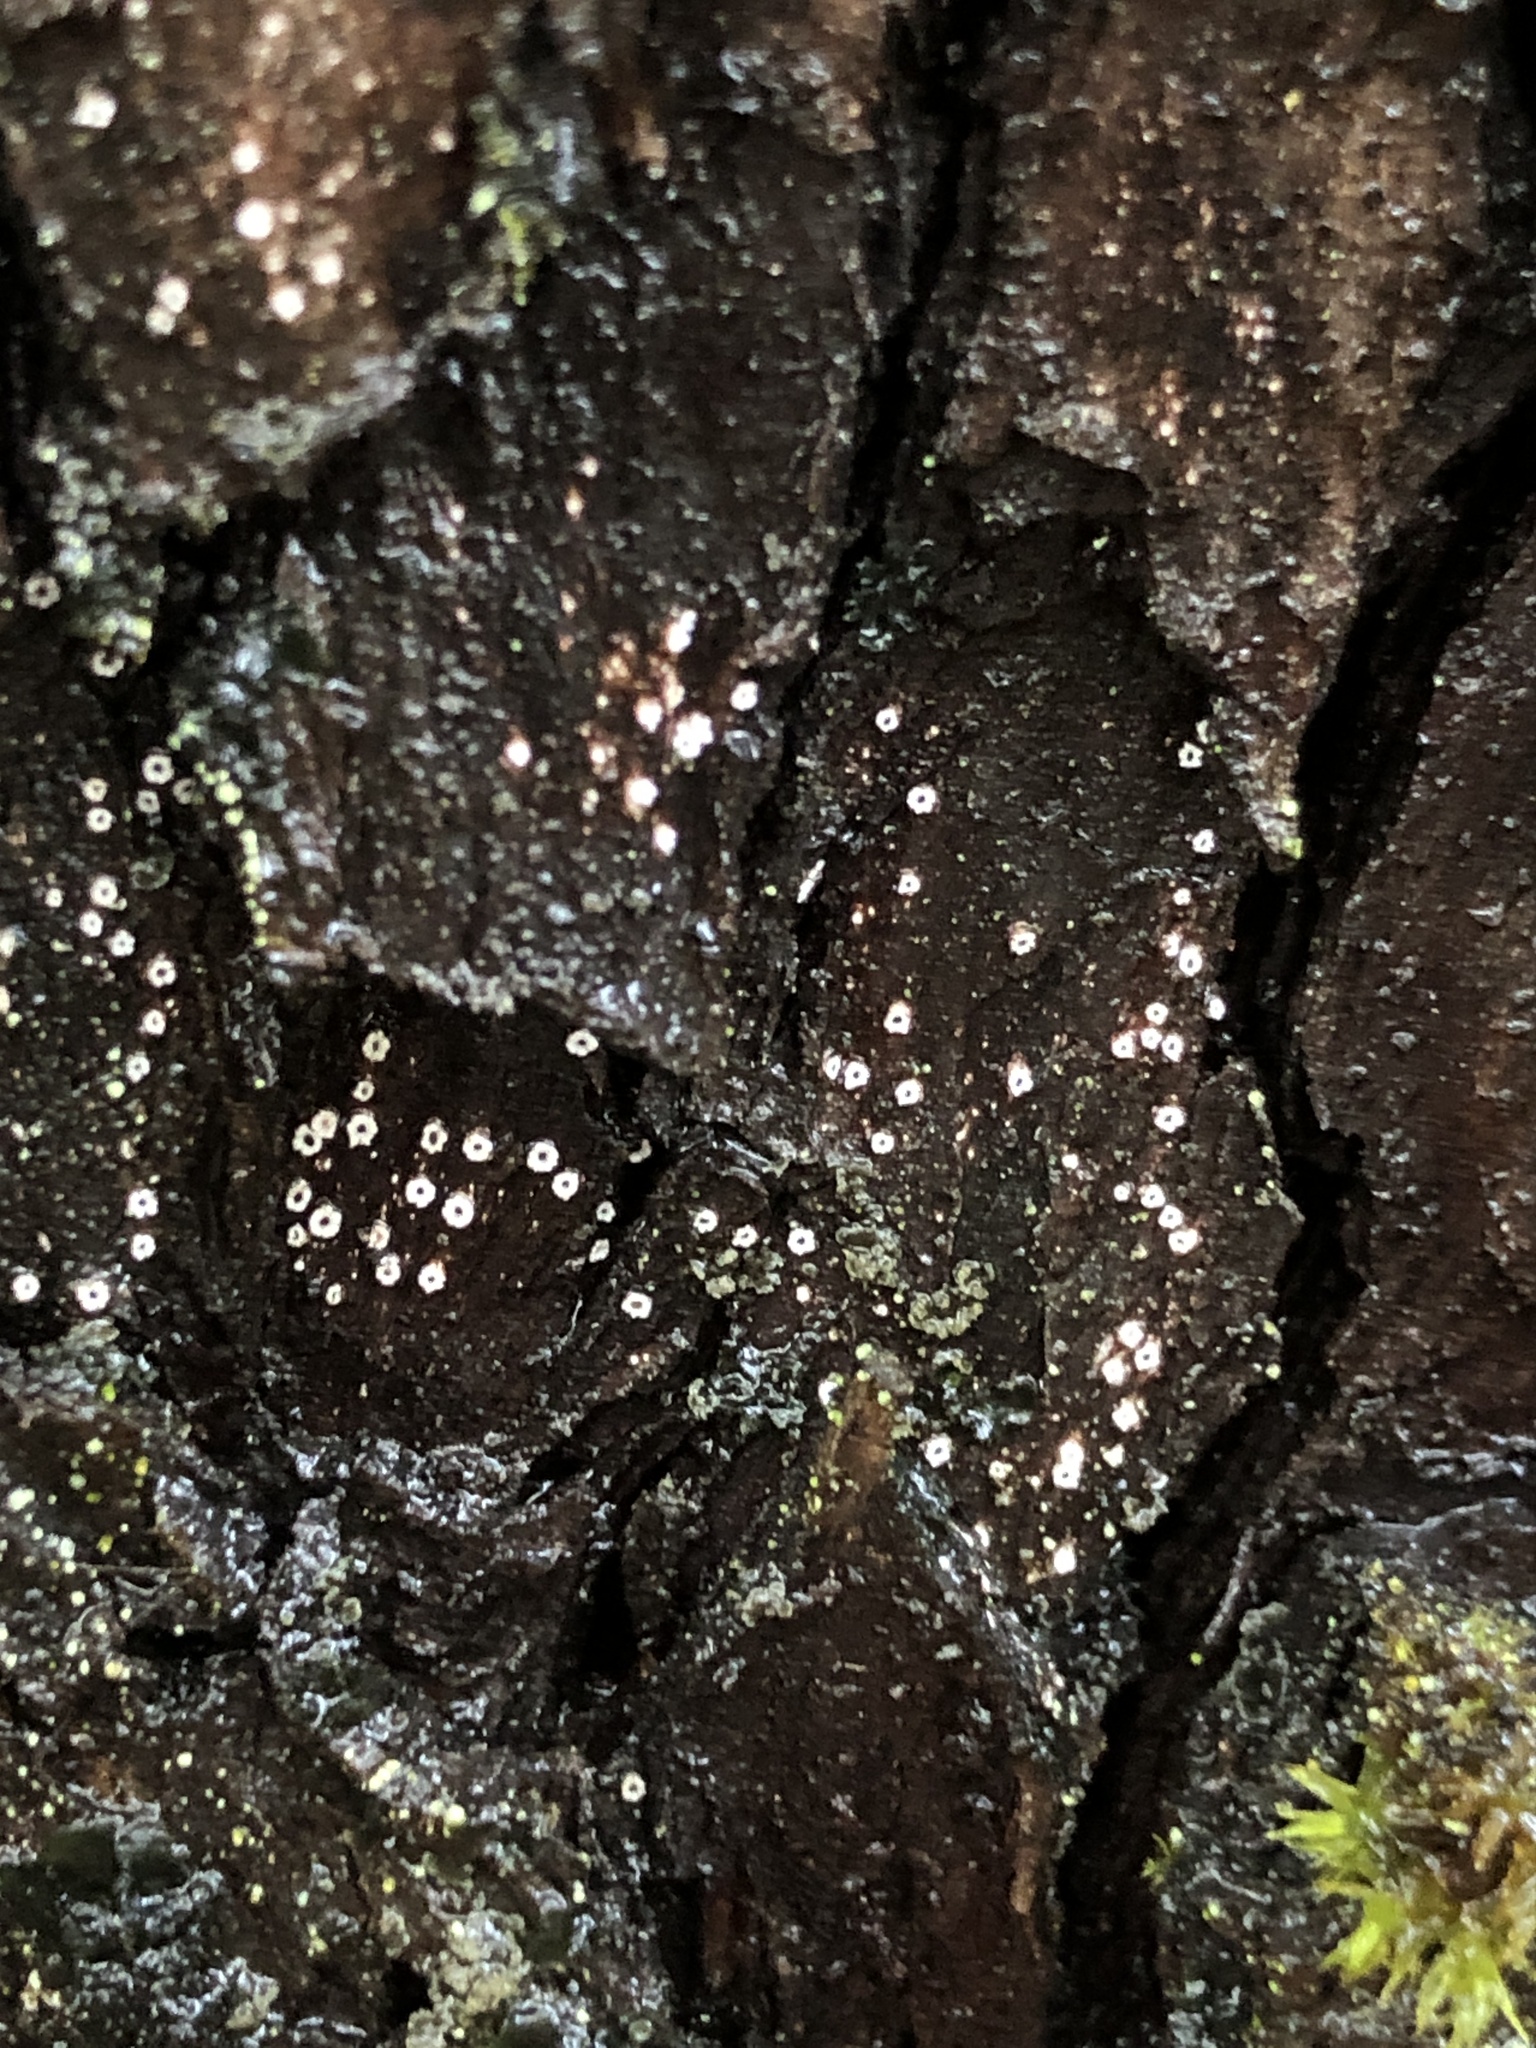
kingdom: Fungi
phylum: Ascomycota
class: Lecanoromycetes
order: Ostropales
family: Stictidaceae
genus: Stictis
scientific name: Stictis radiata
